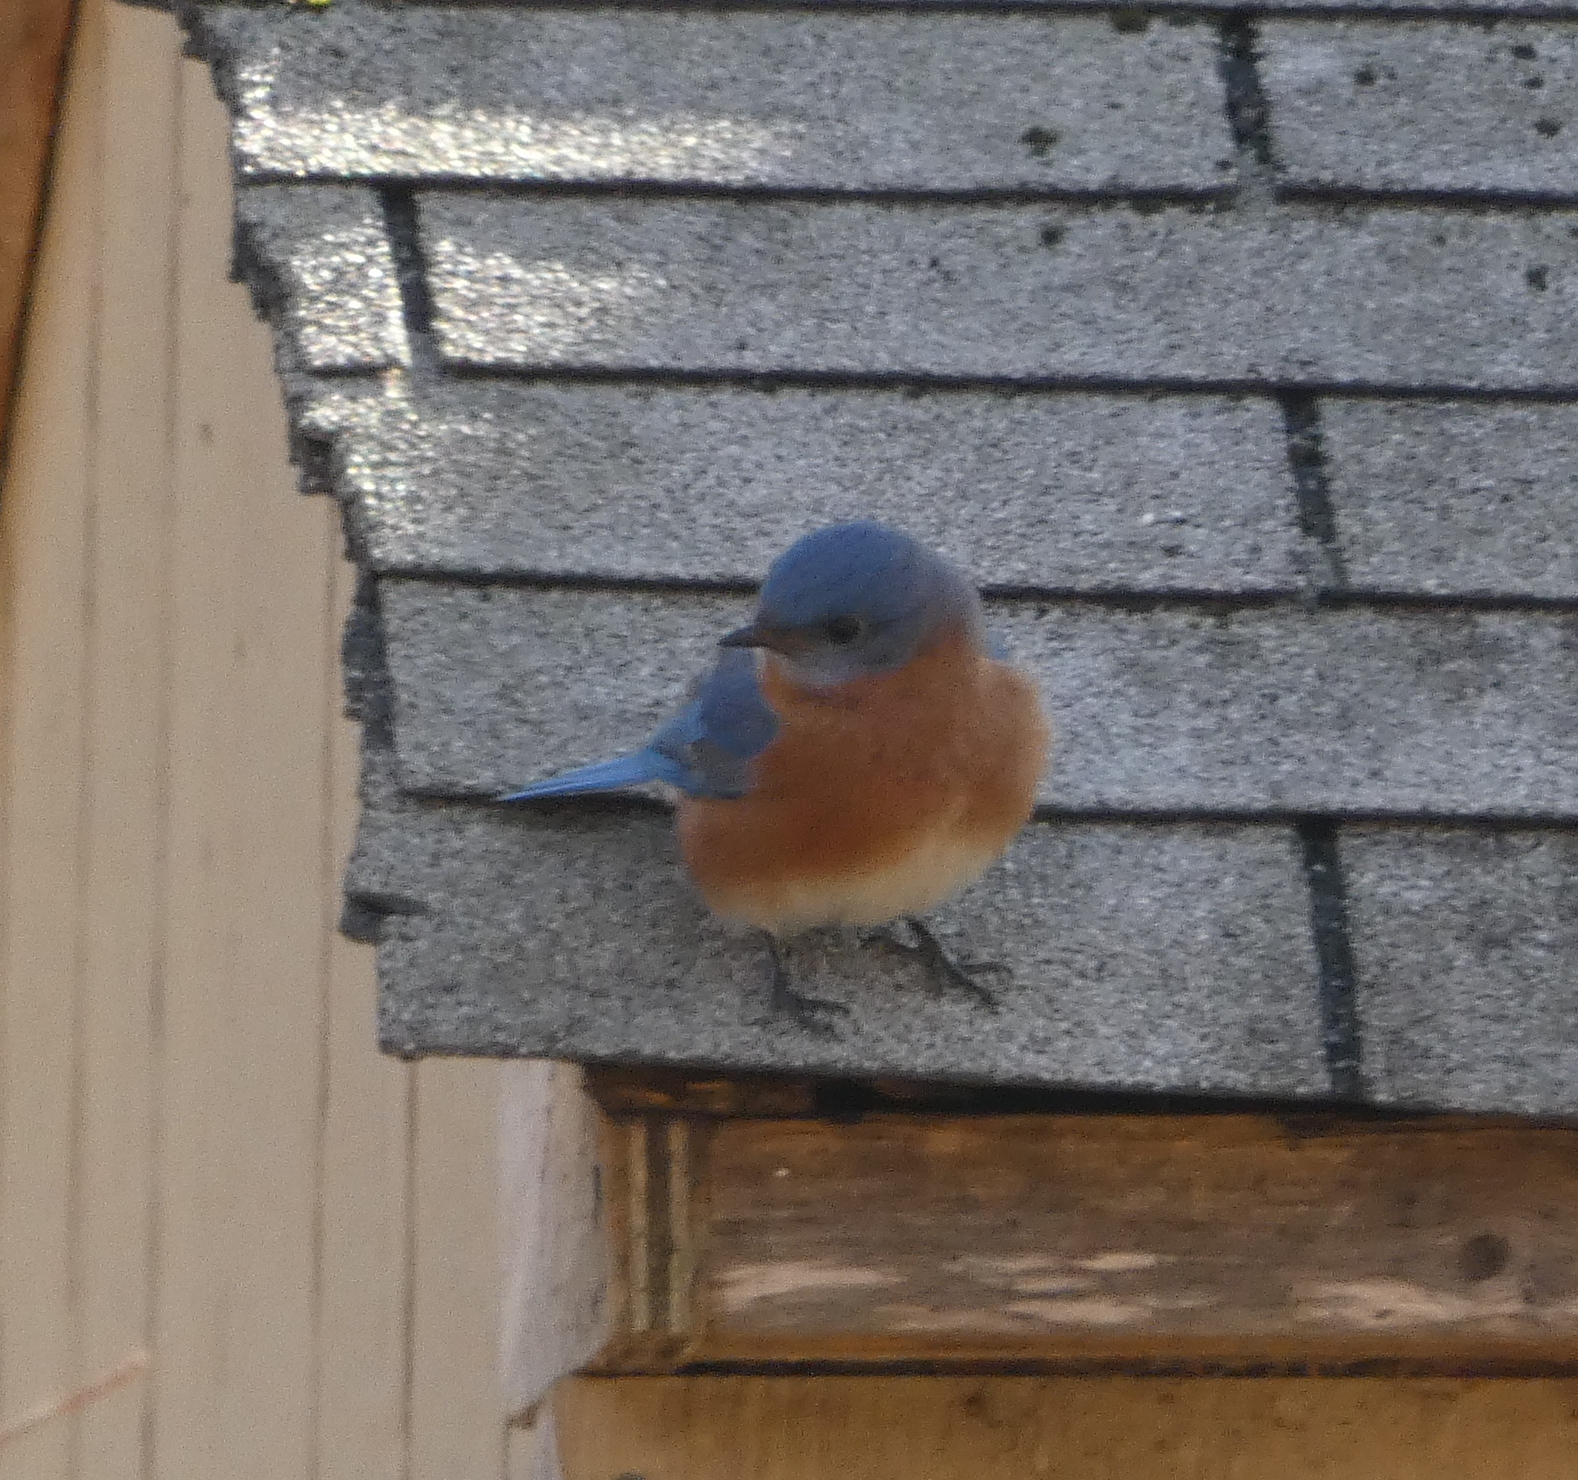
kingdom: Animalia
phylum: Chordata
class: Aves
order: Passeriformes
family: Turdidae
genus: Sialia
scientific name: Sialia sialis
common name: Eastern bluebird
